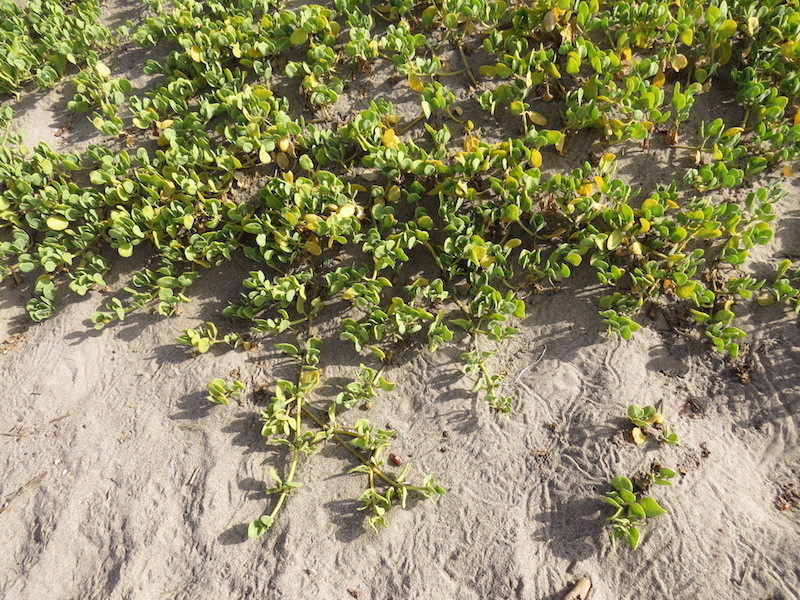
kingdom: Plantae
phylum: Tracheophyta
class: Magnoliopsida
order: Caryophyllales
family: Nyctaginaceae
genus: Abronia
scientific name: Abronia maritima
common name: Red sand-verbena
